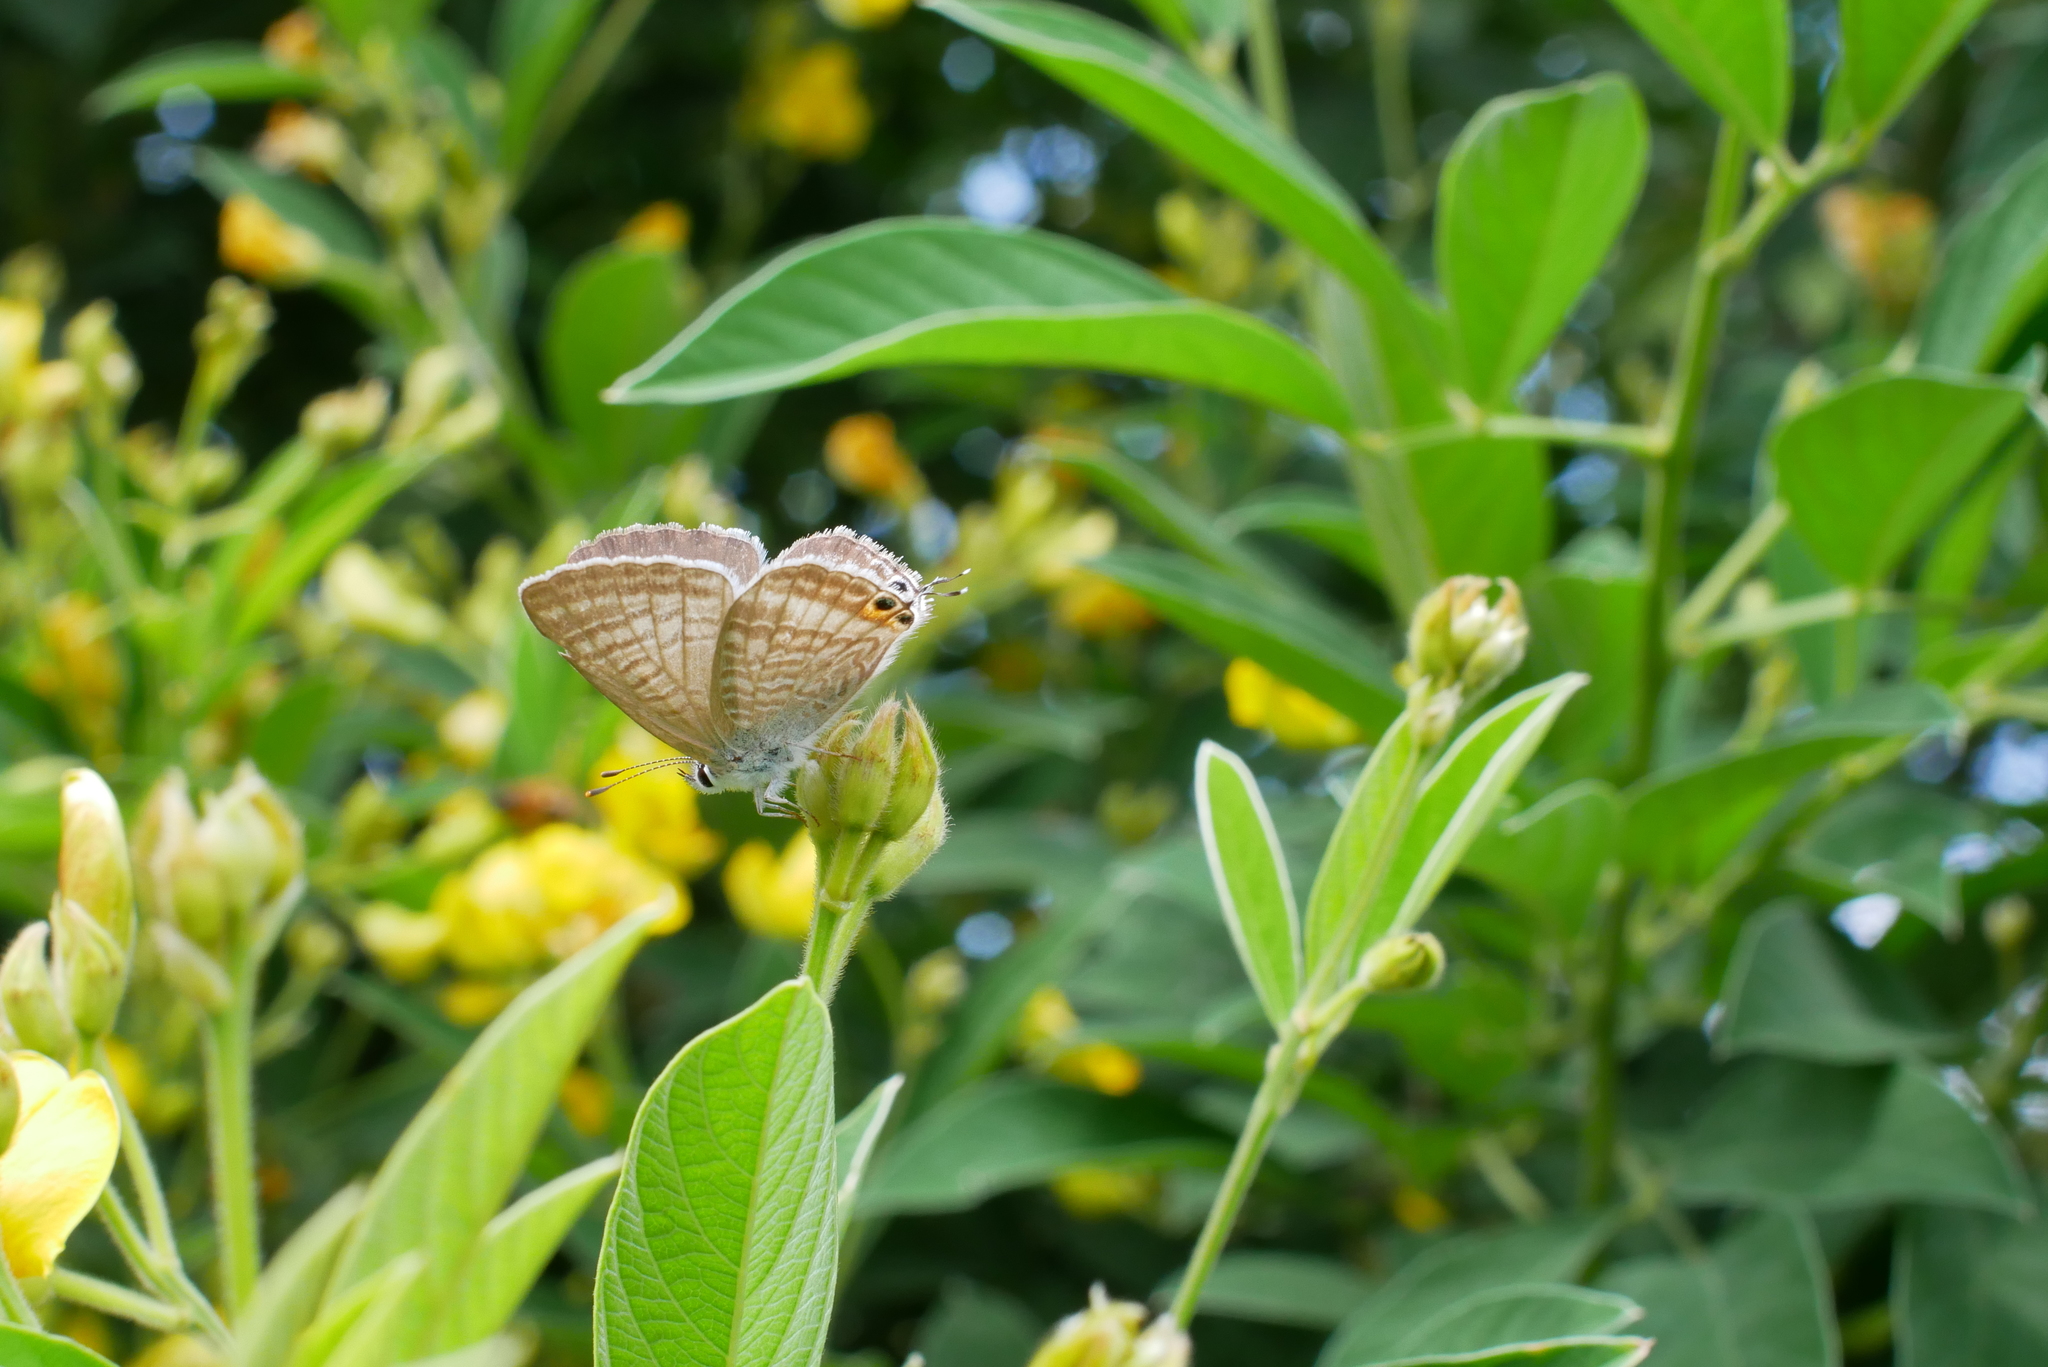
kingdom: Animalia
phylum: Arthropoda
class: Insecta
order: Lepidoptera
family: Lycaenidae
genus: Lampides
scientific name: Lampides boeticus
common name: Long-tailed blue
